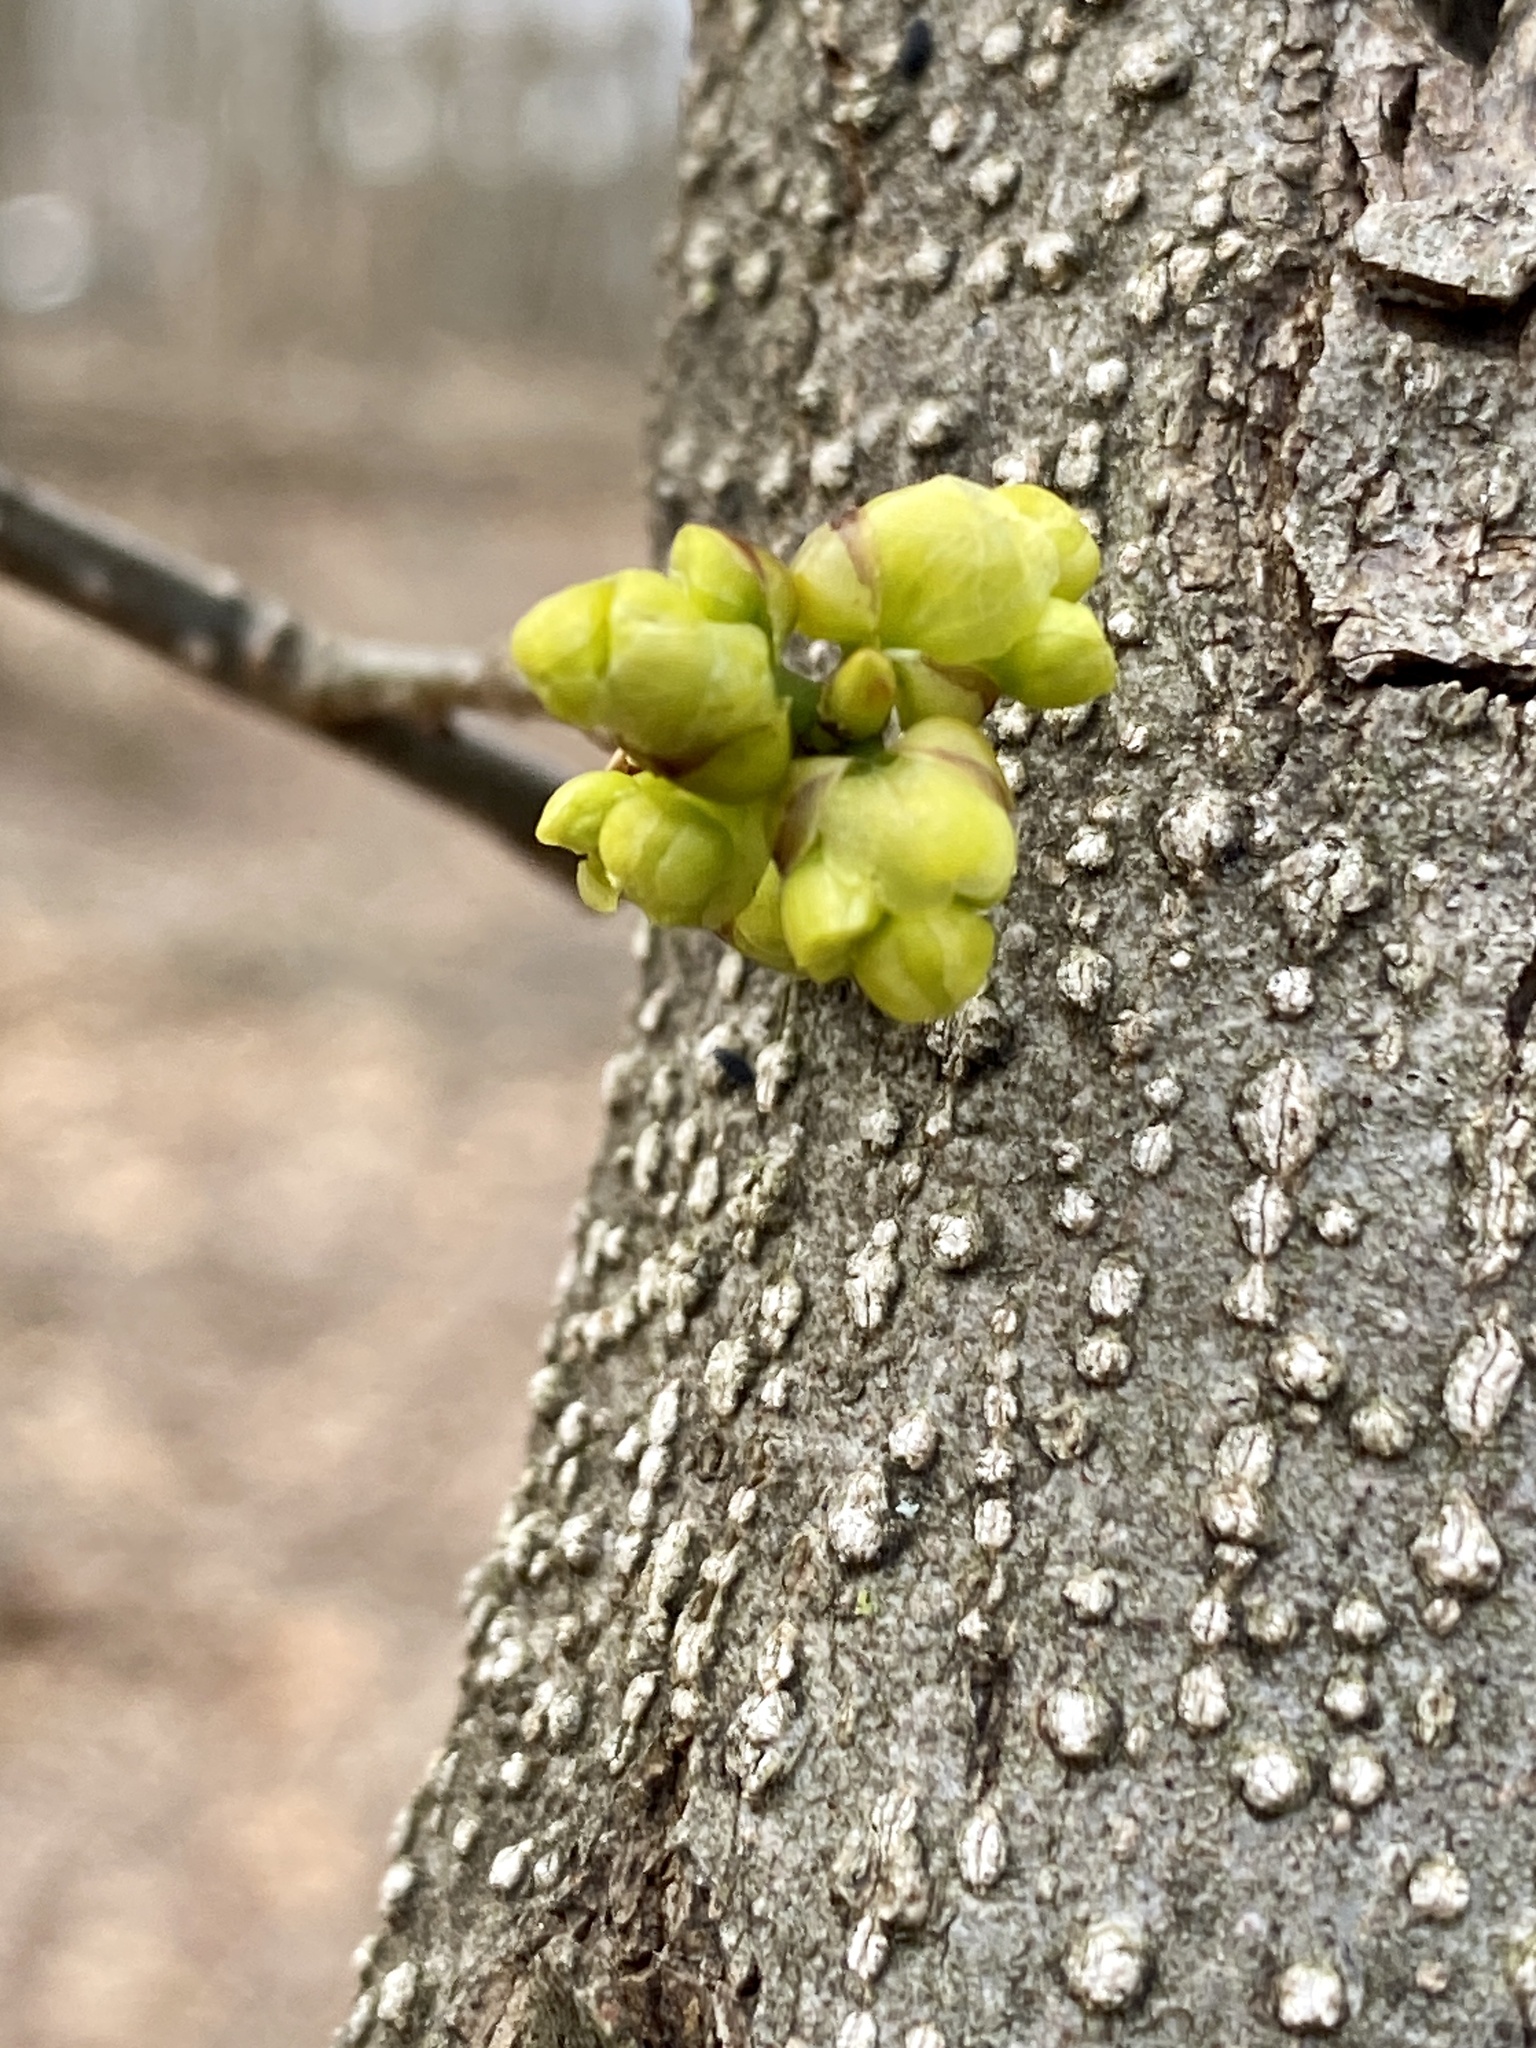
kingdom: Plantae
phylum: Tracheophyta
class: Magnoliopsida
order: Laurales
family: Lauraceae
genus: Lindera
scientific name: Lindera benzoin
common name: Spicebush
